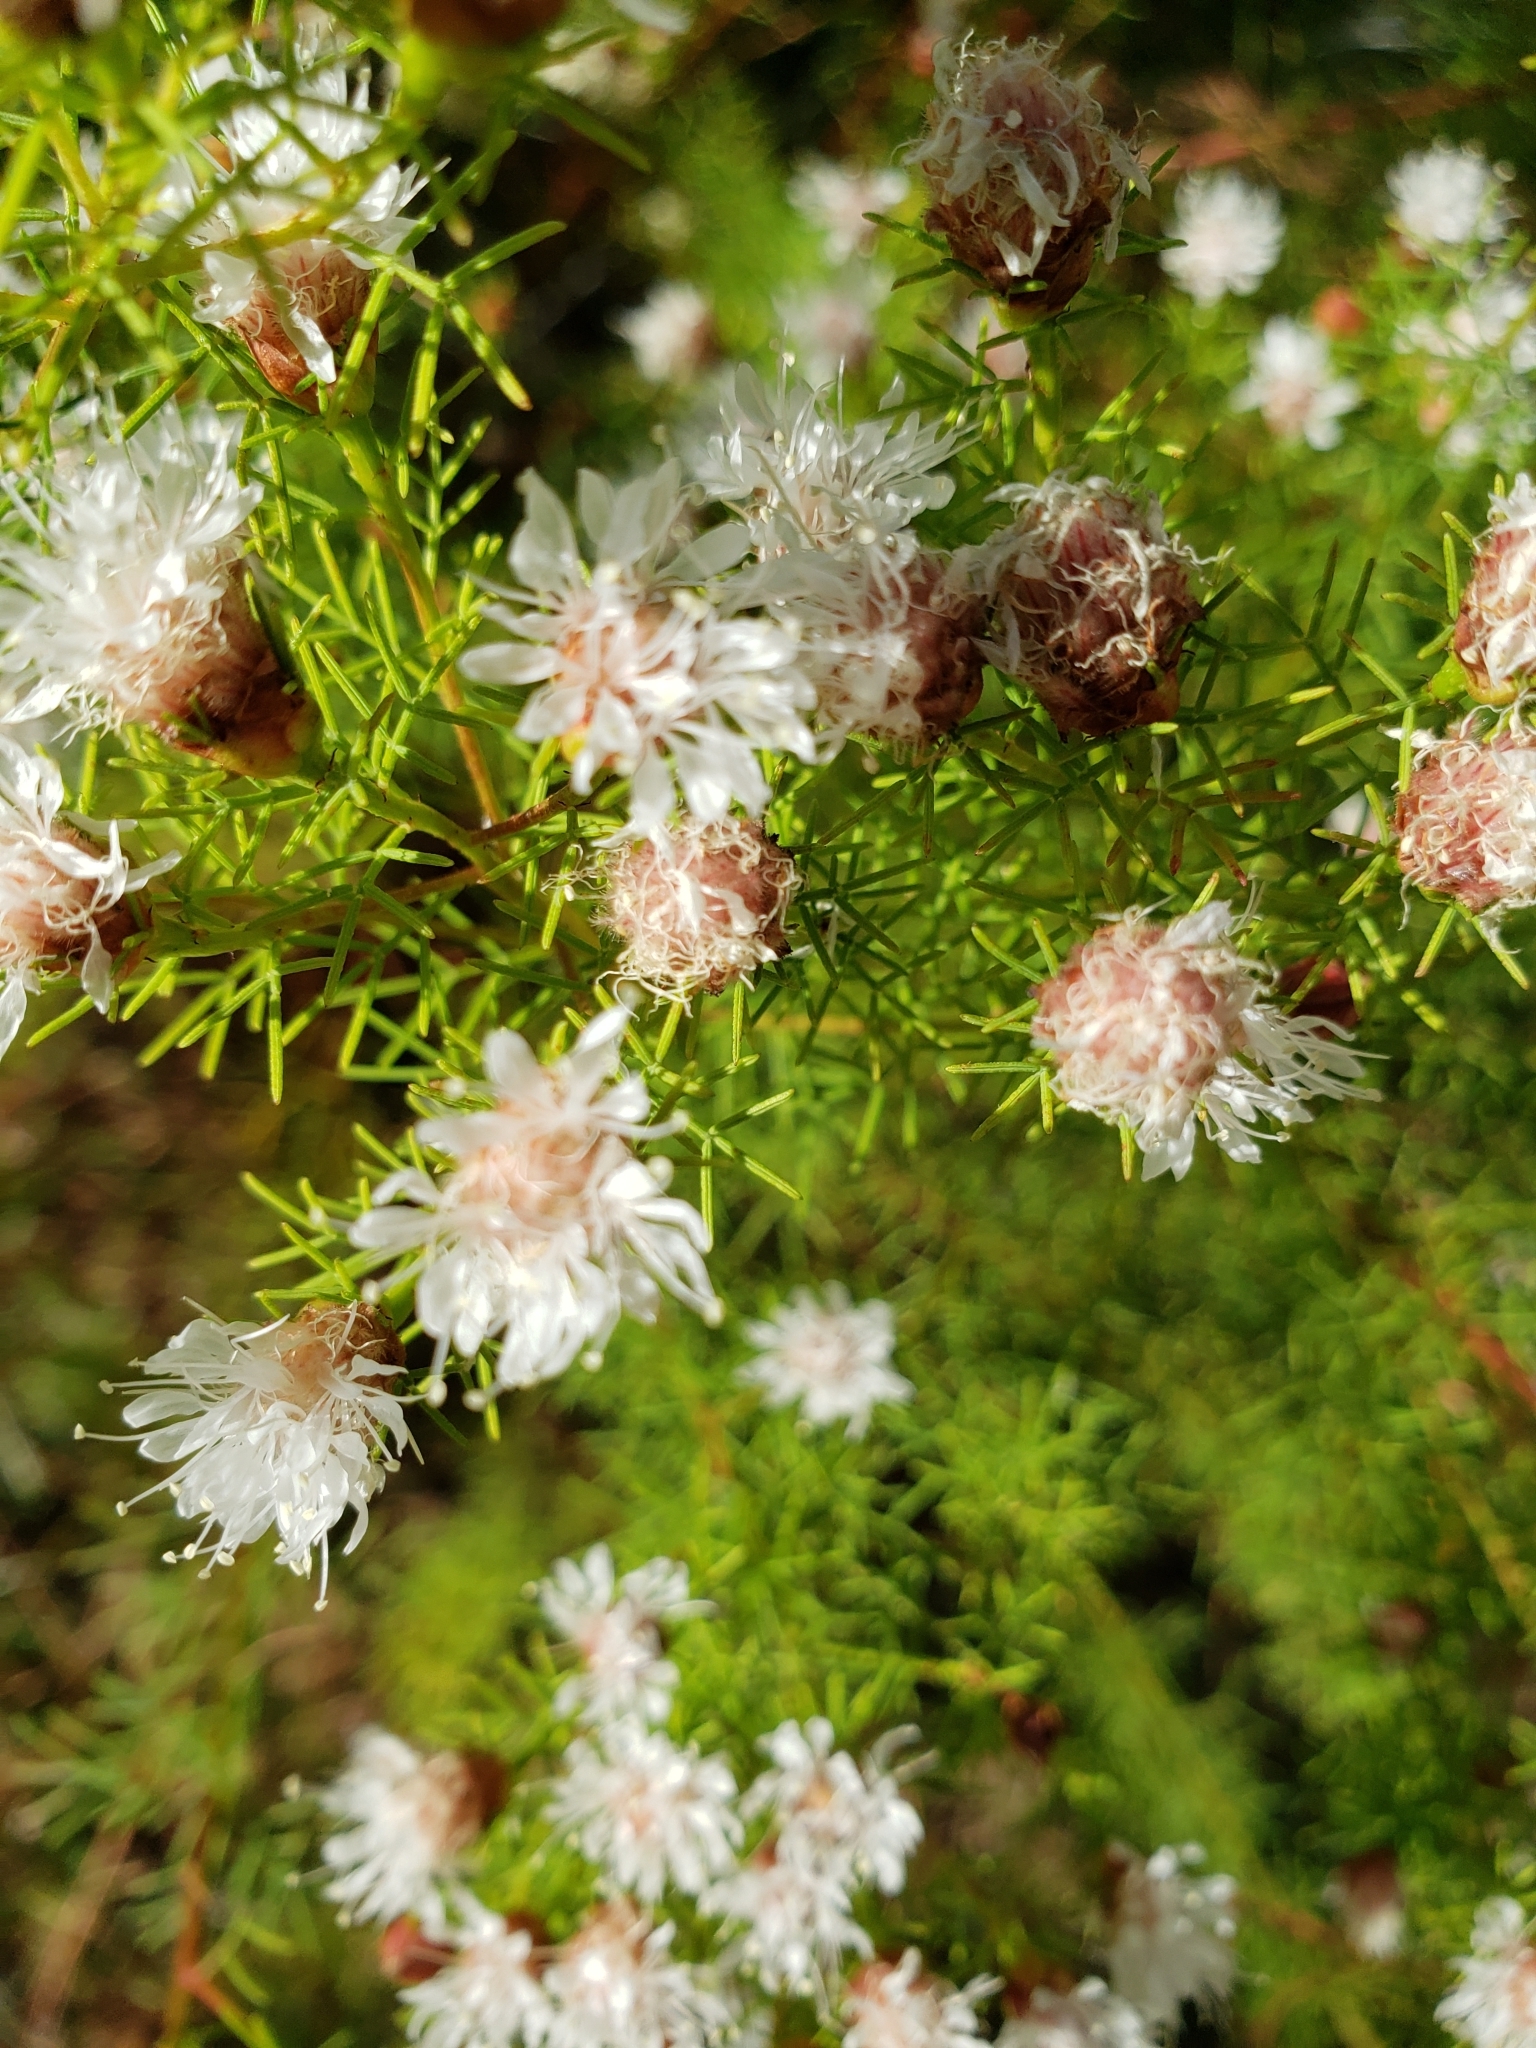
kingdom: Plantae
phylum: Tracheophyta
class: Magnoliopsida
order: Fabales
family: Fabaceae
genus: Dalea
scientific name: Dalea pinnata
